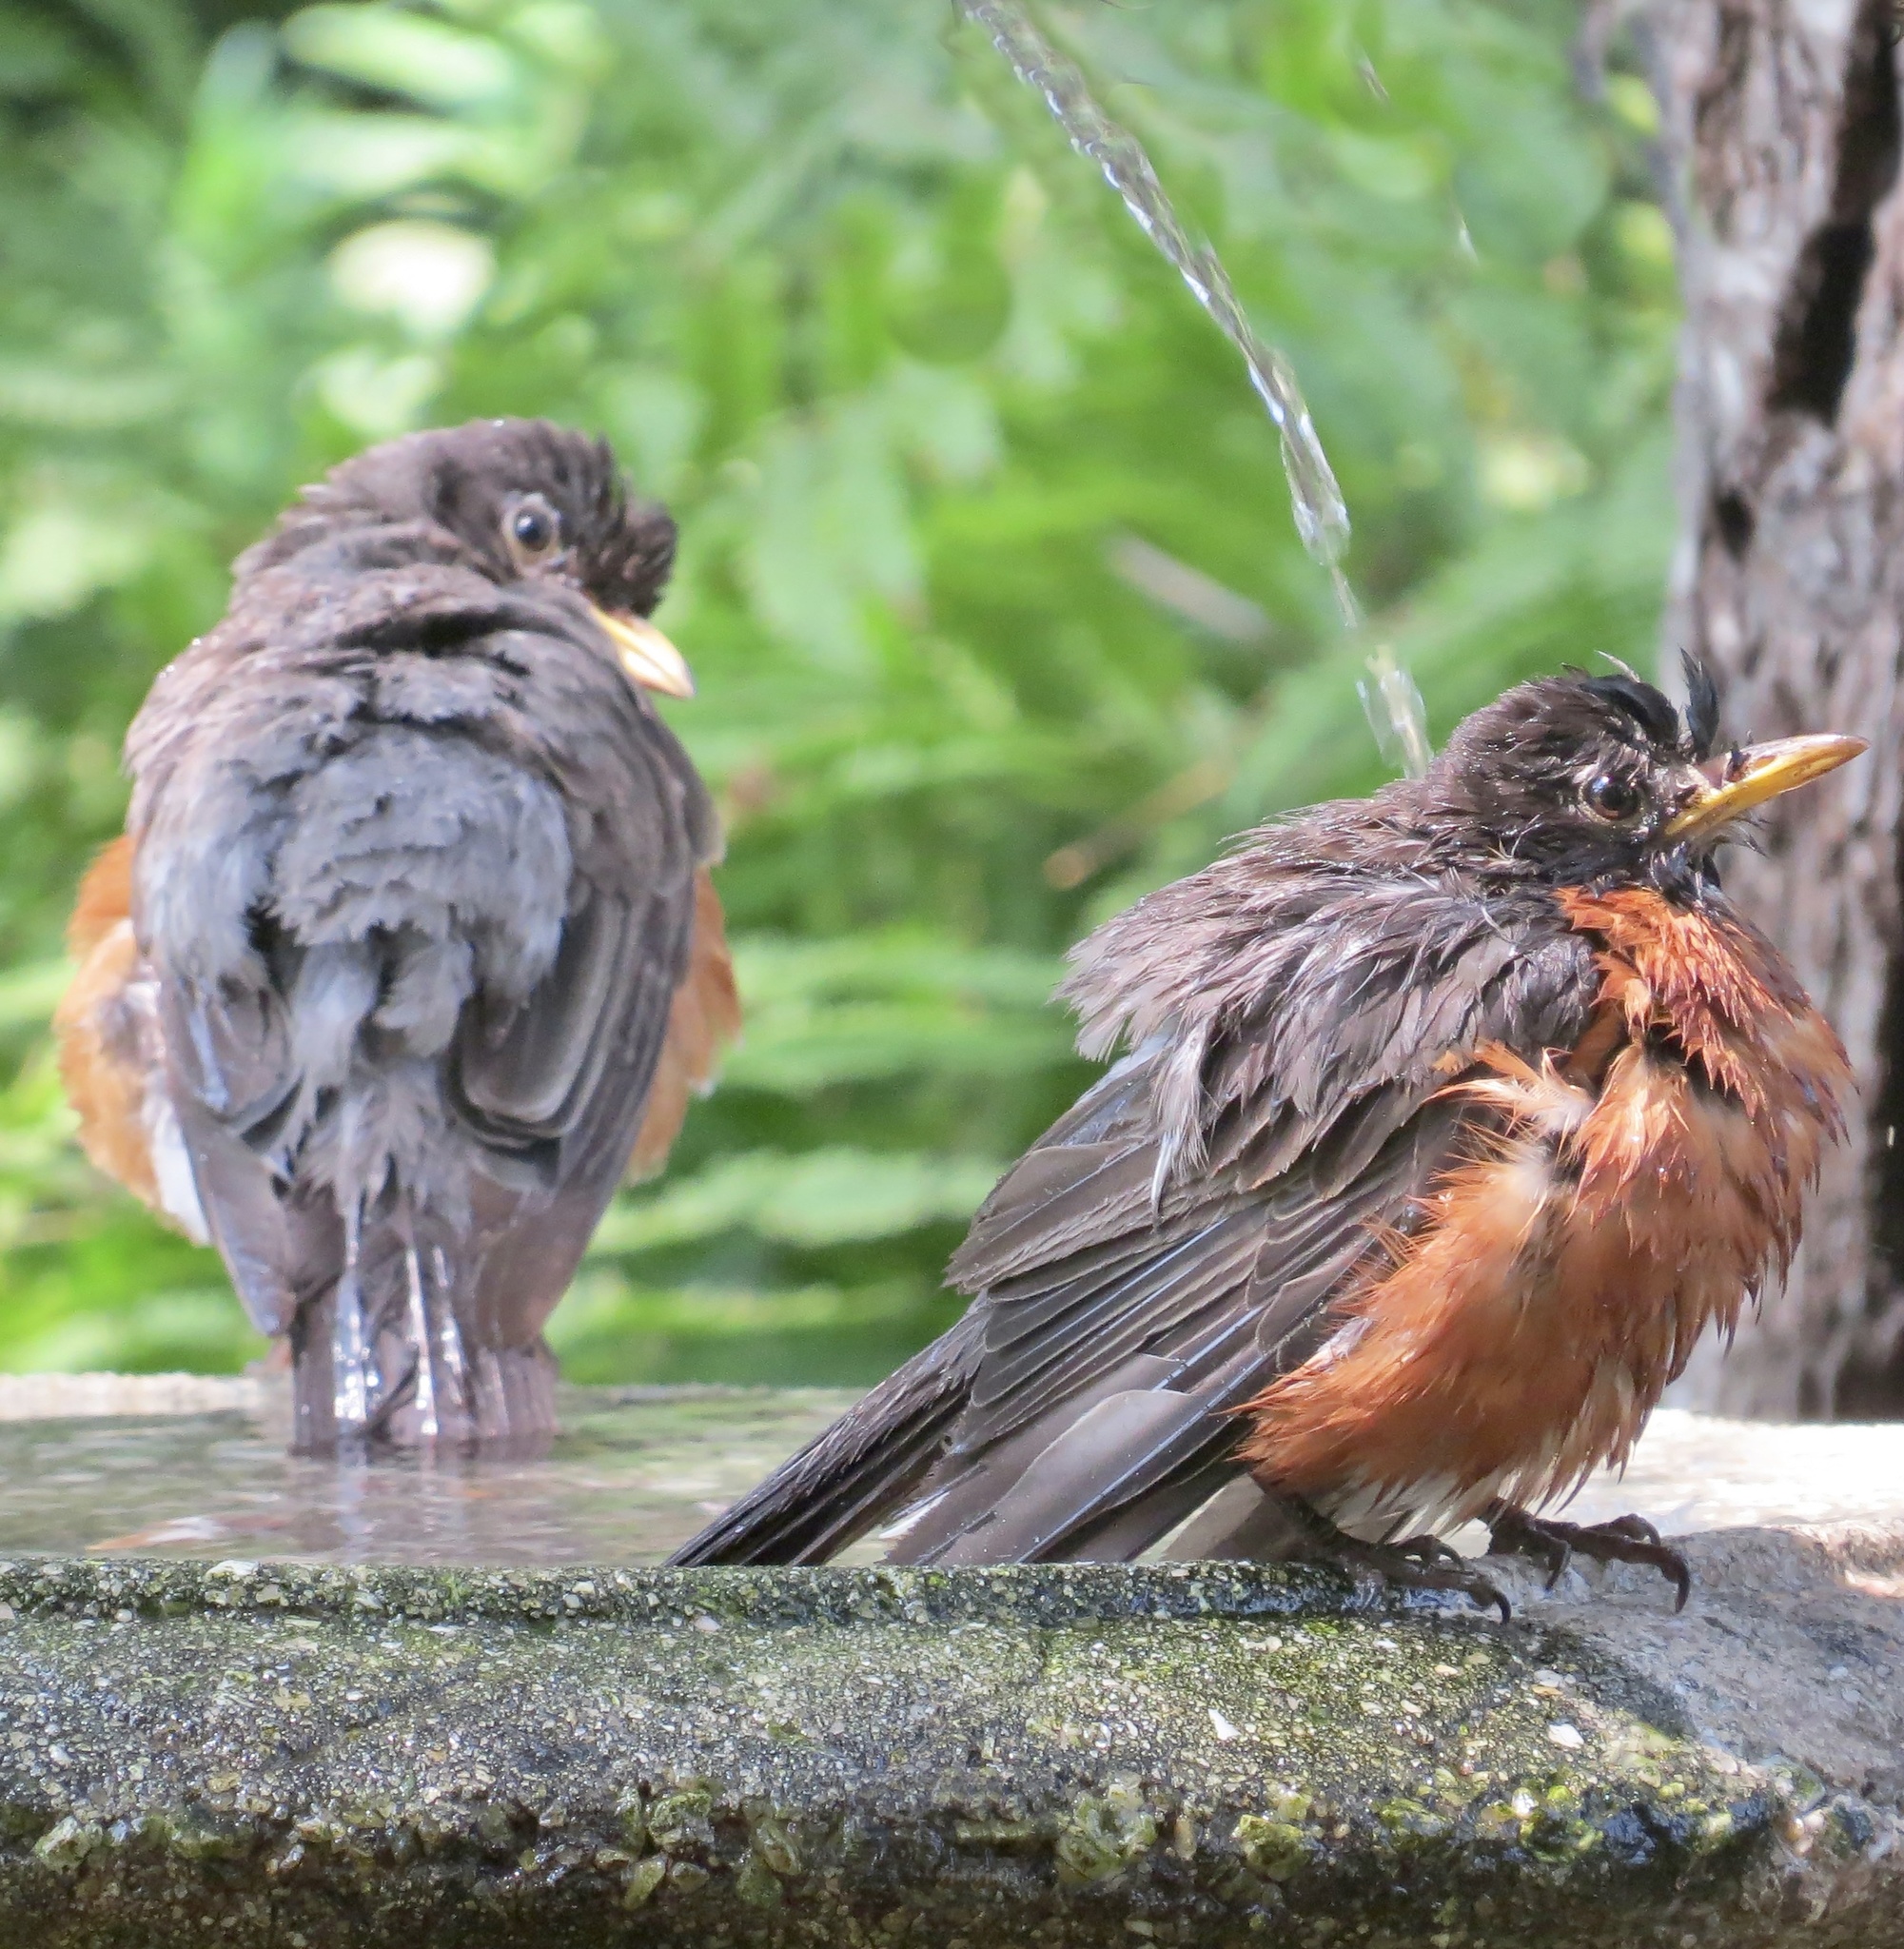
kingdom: Animalia
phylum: Chordata
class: Aves
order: Passeriformes
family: Turdidae
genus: Turdus
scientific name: Turdus migratorius
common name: American robin
